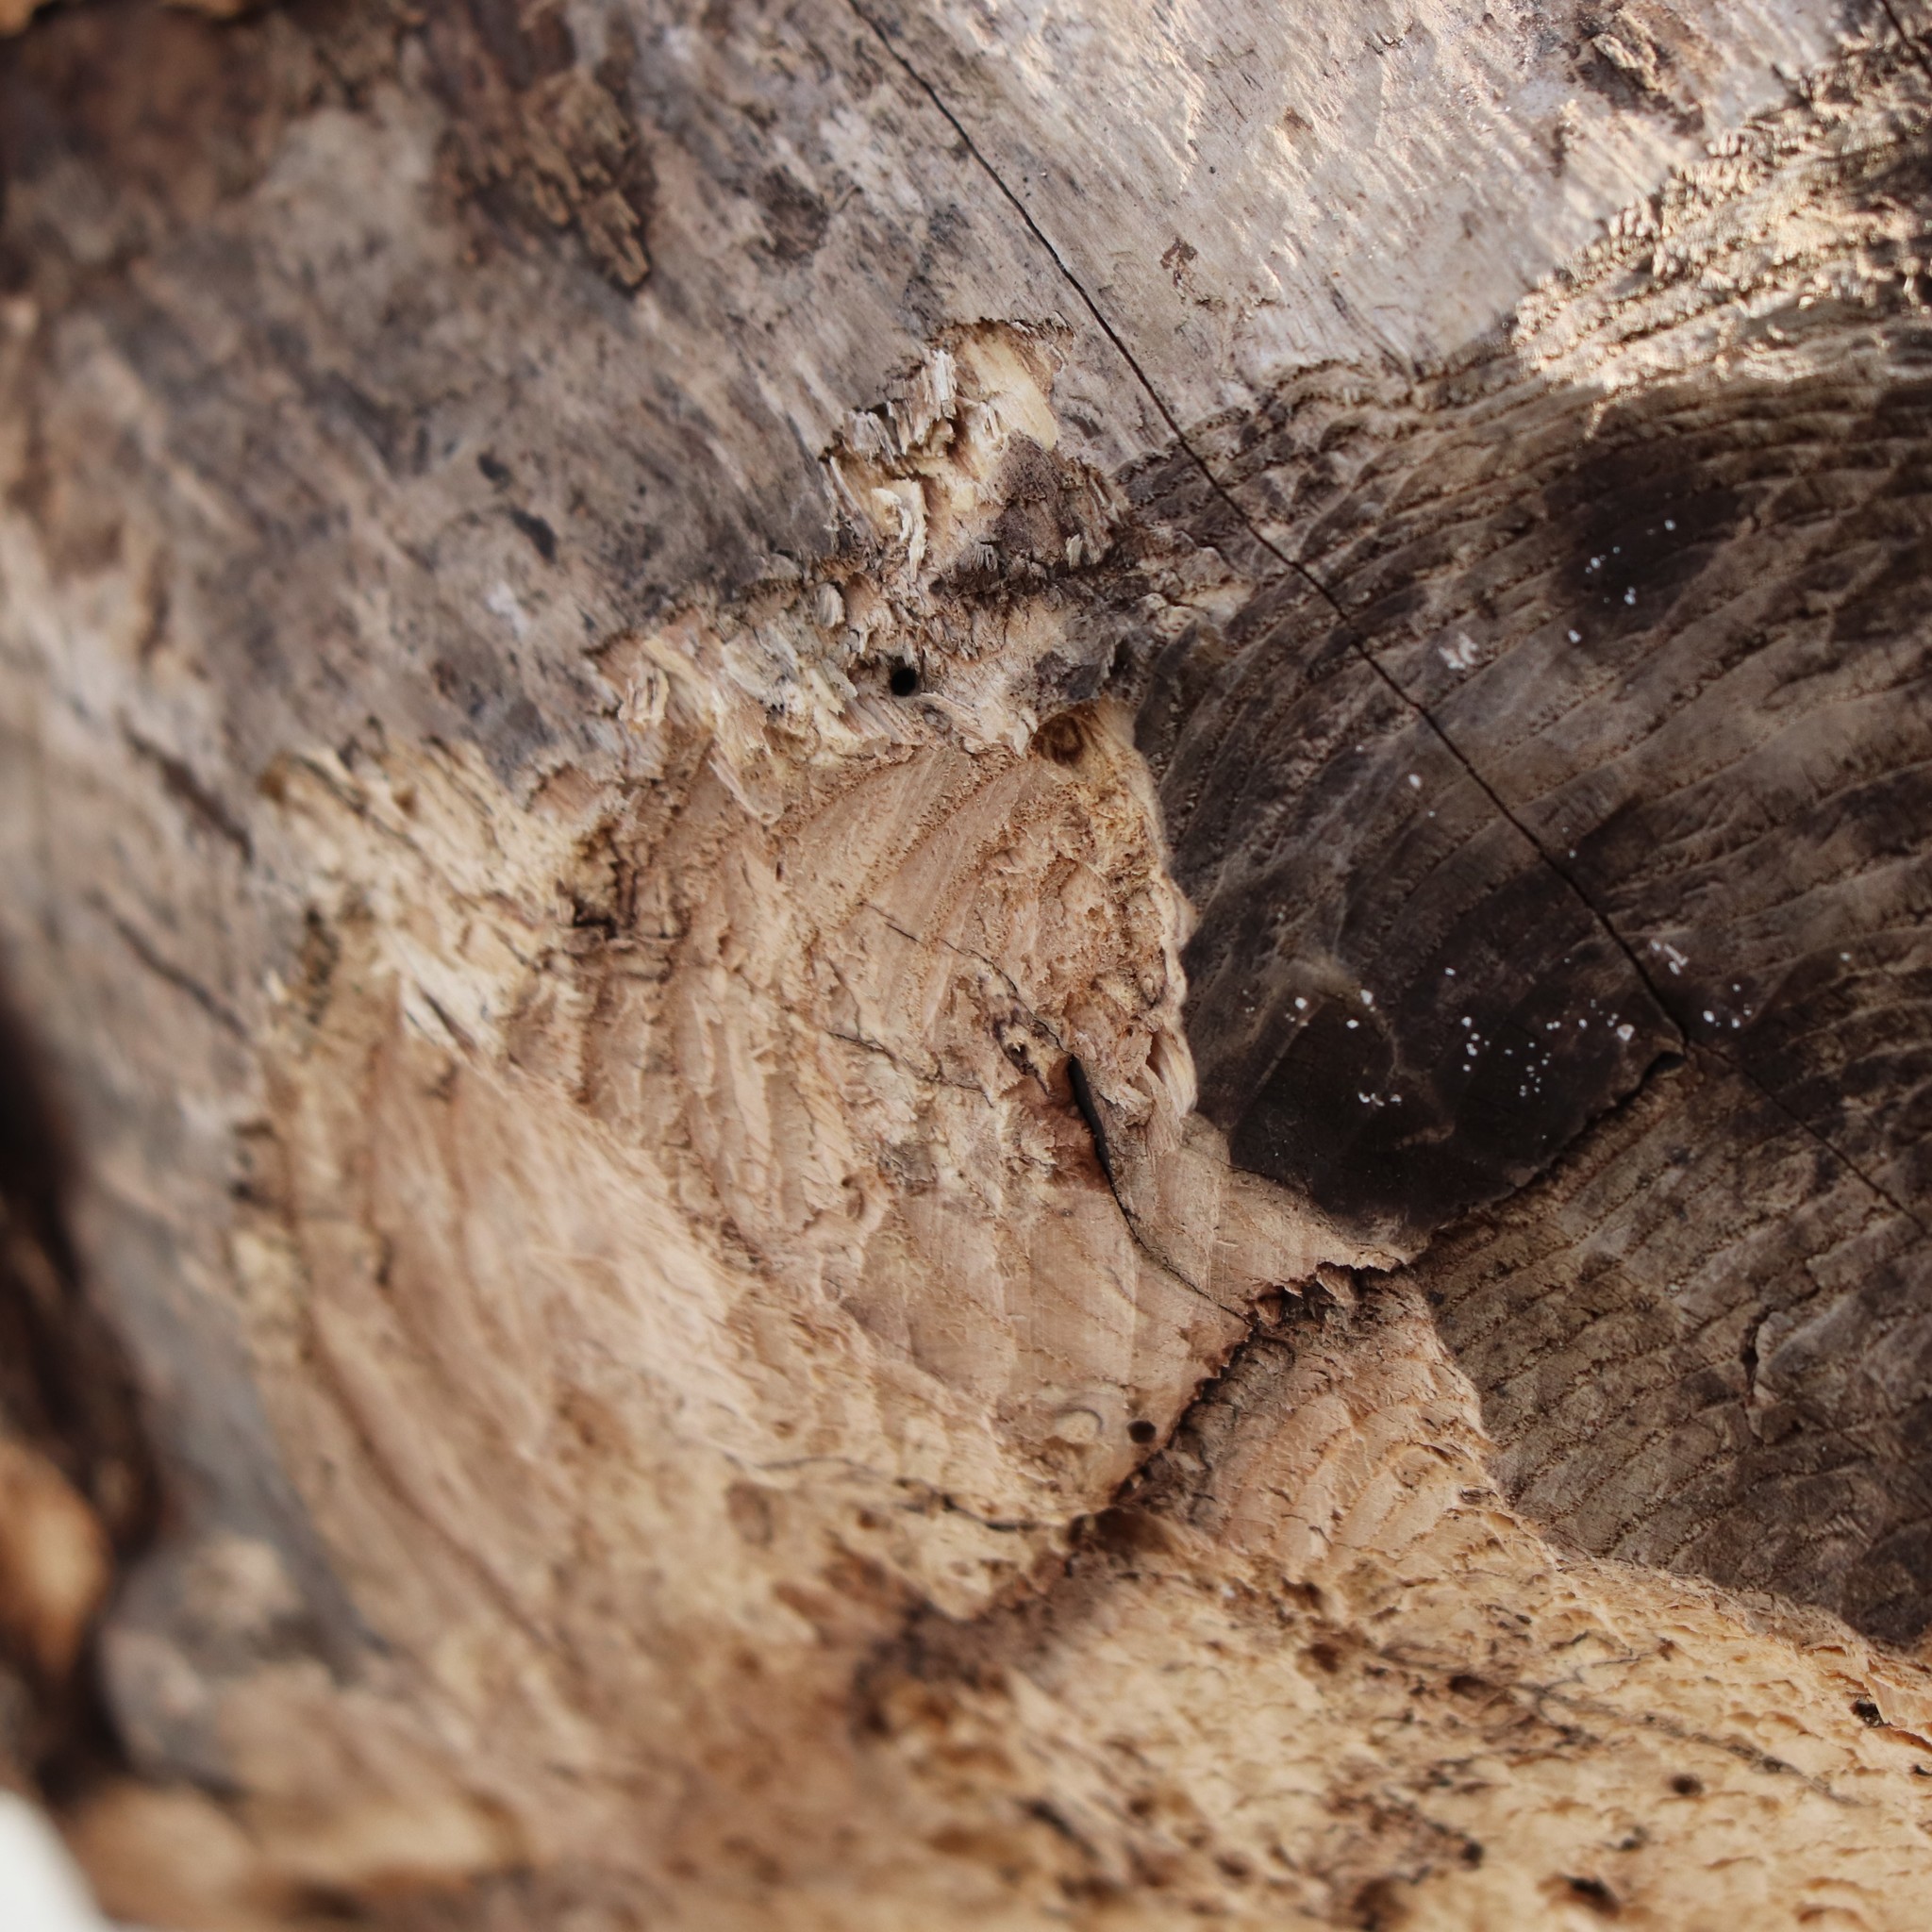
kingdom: Animalia
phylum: Chordata
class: Mammalia
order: Rodentia
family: Castoridae
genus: Castor
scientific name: Castor canadensis
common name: American beaver
